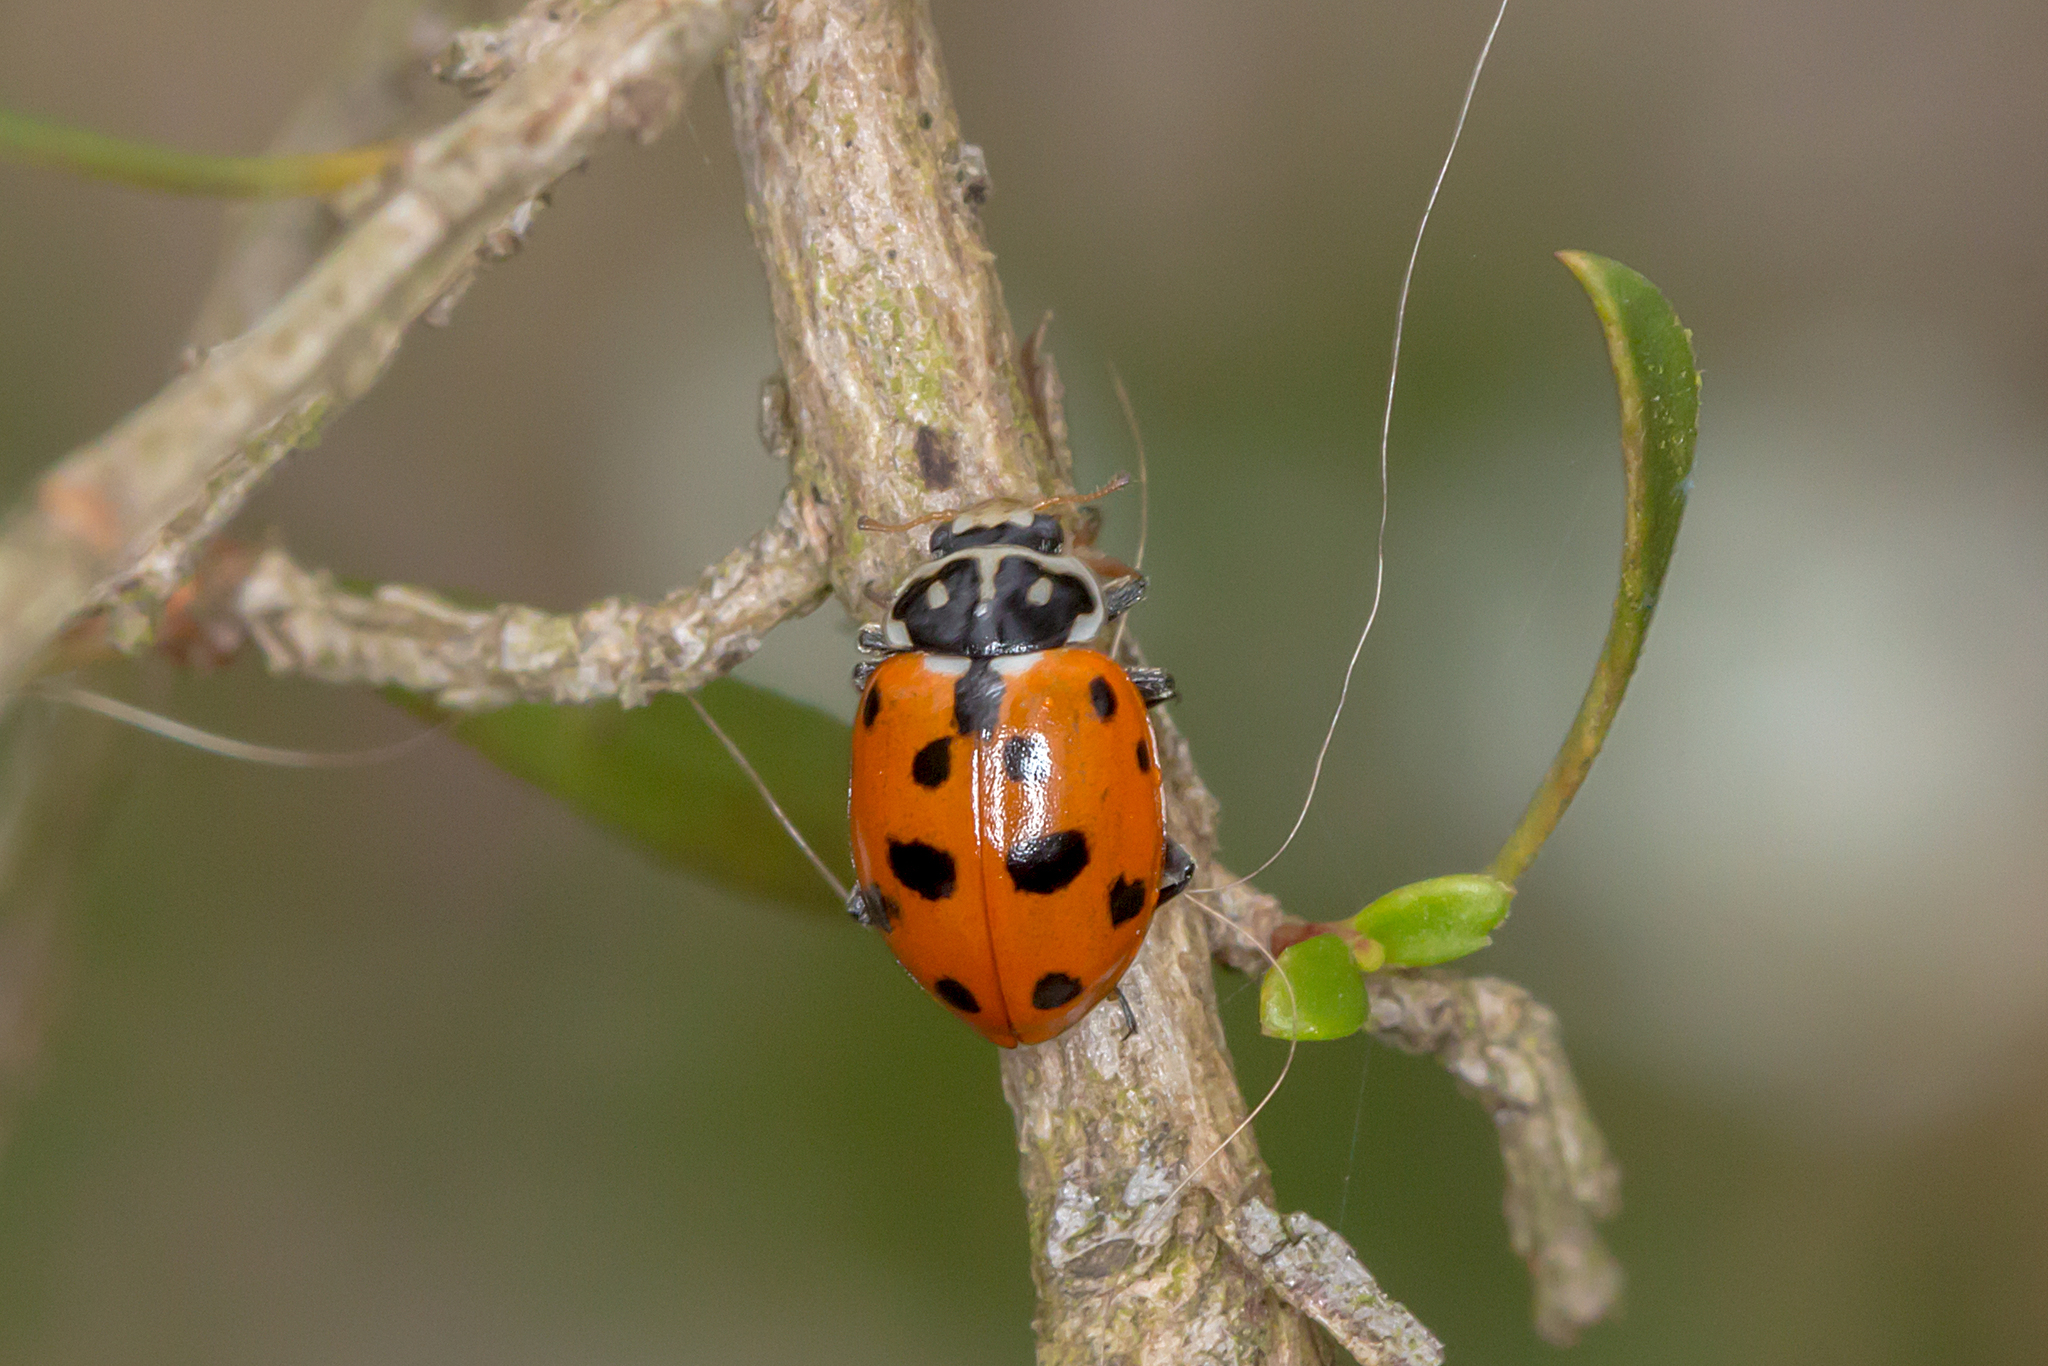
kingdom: Animalia
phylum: Arthropoda
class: Insecta
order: Coleoptera
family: Coccinellidae
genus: Hippodamia
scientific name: Hippodamia variegata
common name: Ladybird beetle
